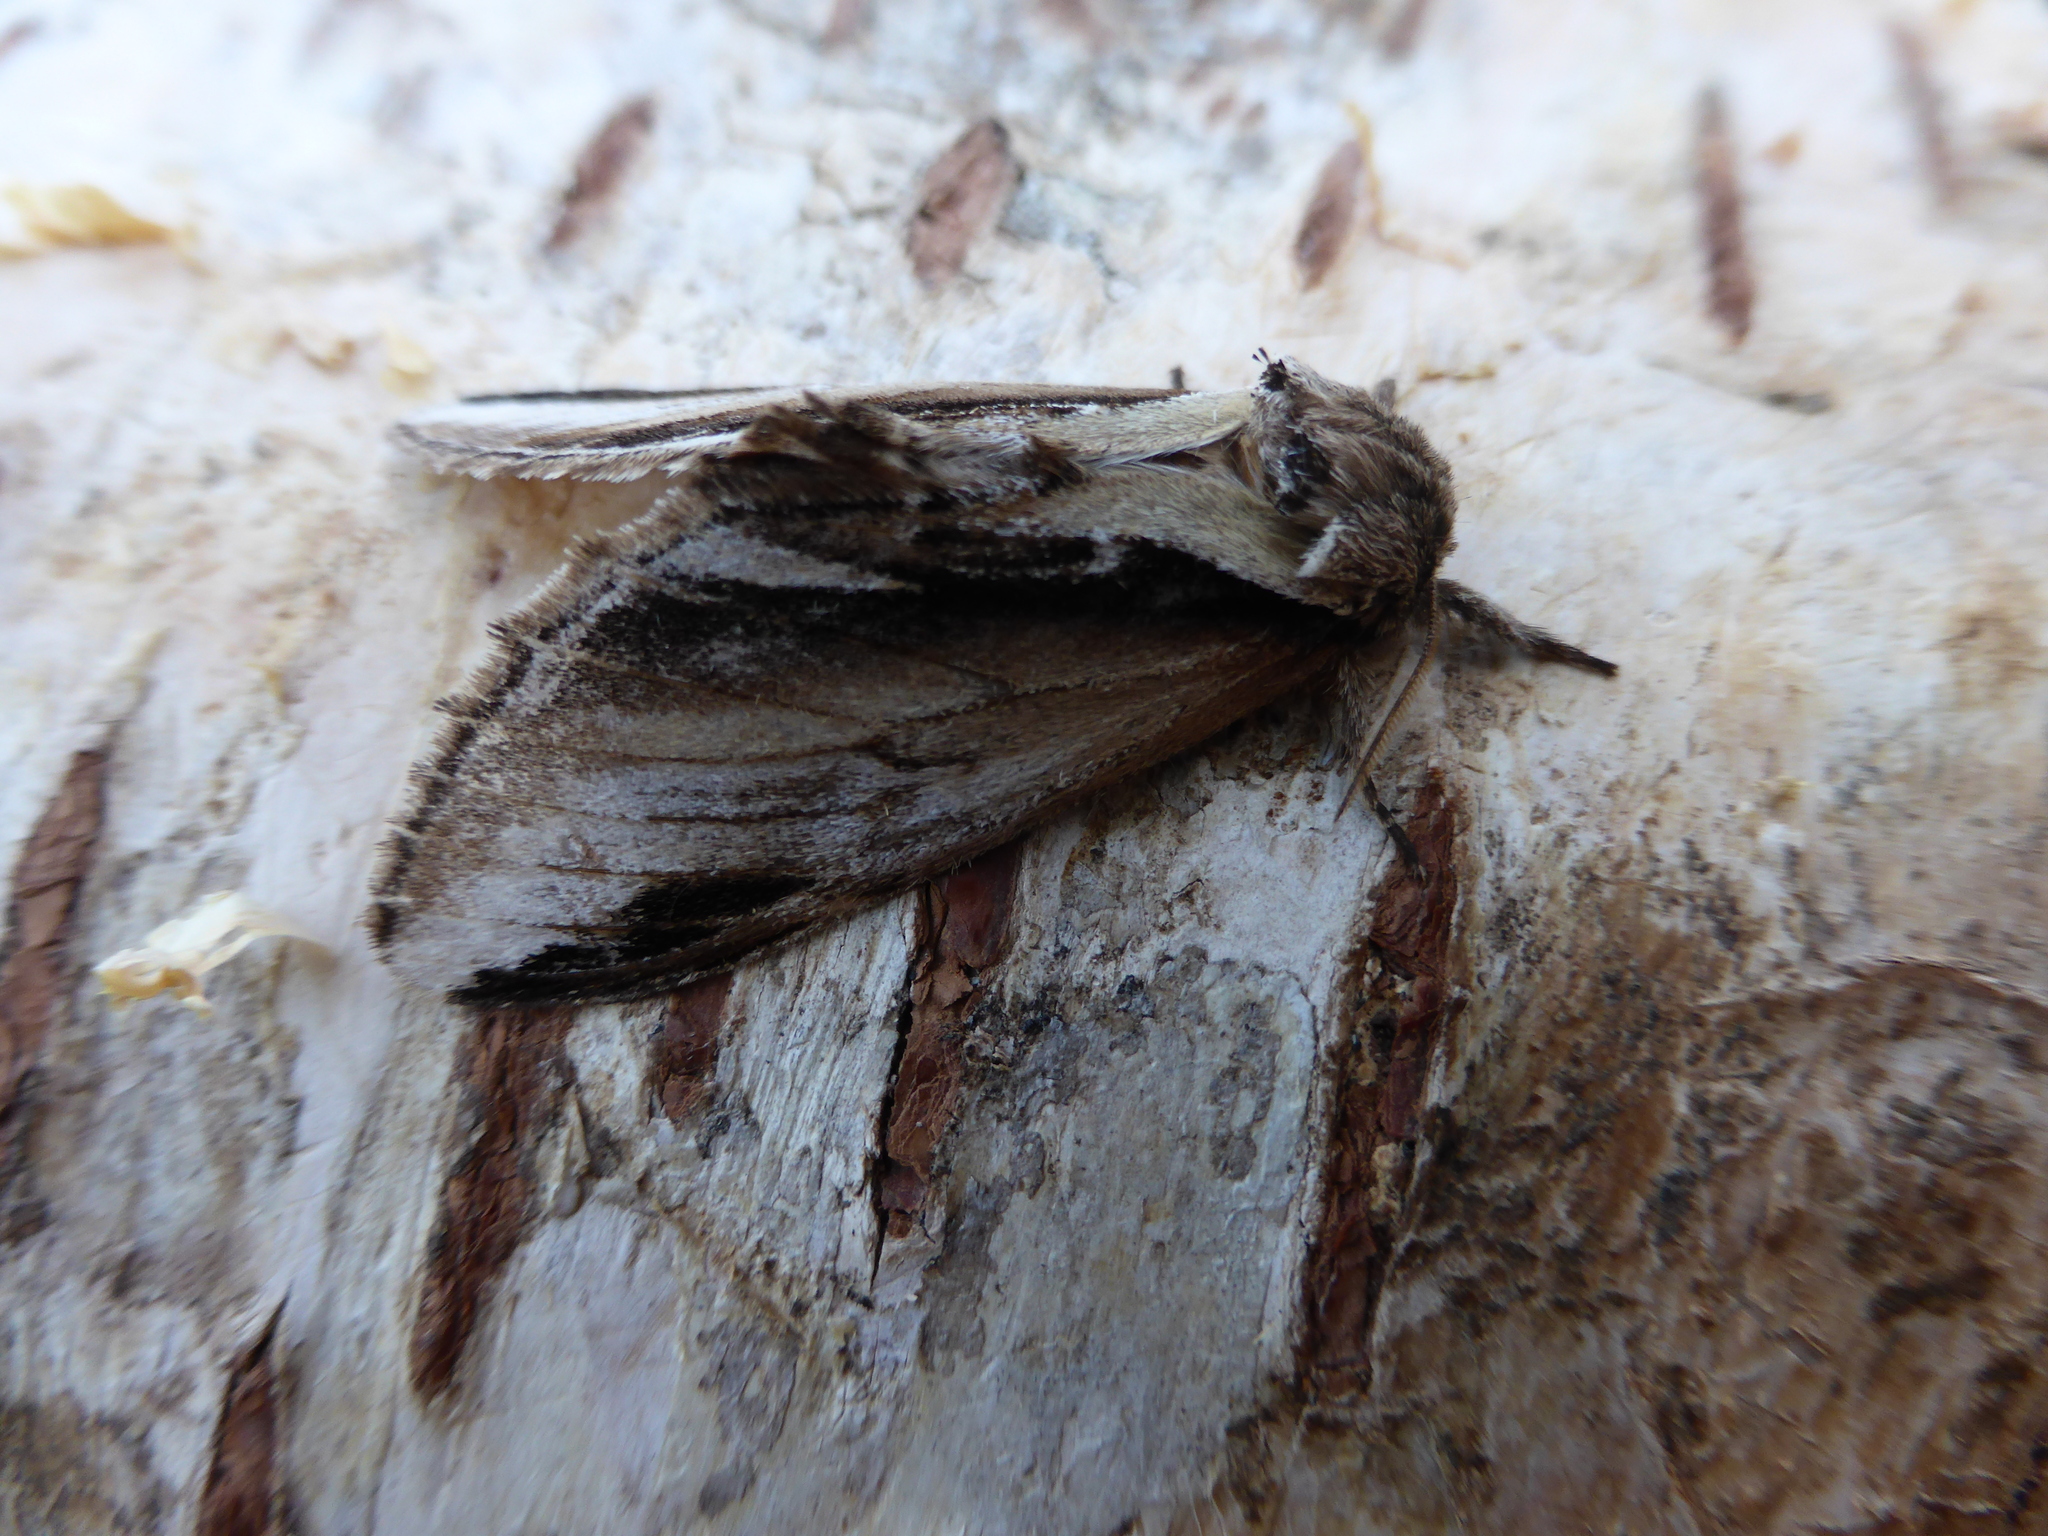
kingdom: Animalia
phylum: Arthropoda
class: Insecta
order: Lepidoptera
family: Notodontidae
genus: Pheosia
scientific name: Pheosia gnoma
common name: Lesser swallow prominent
